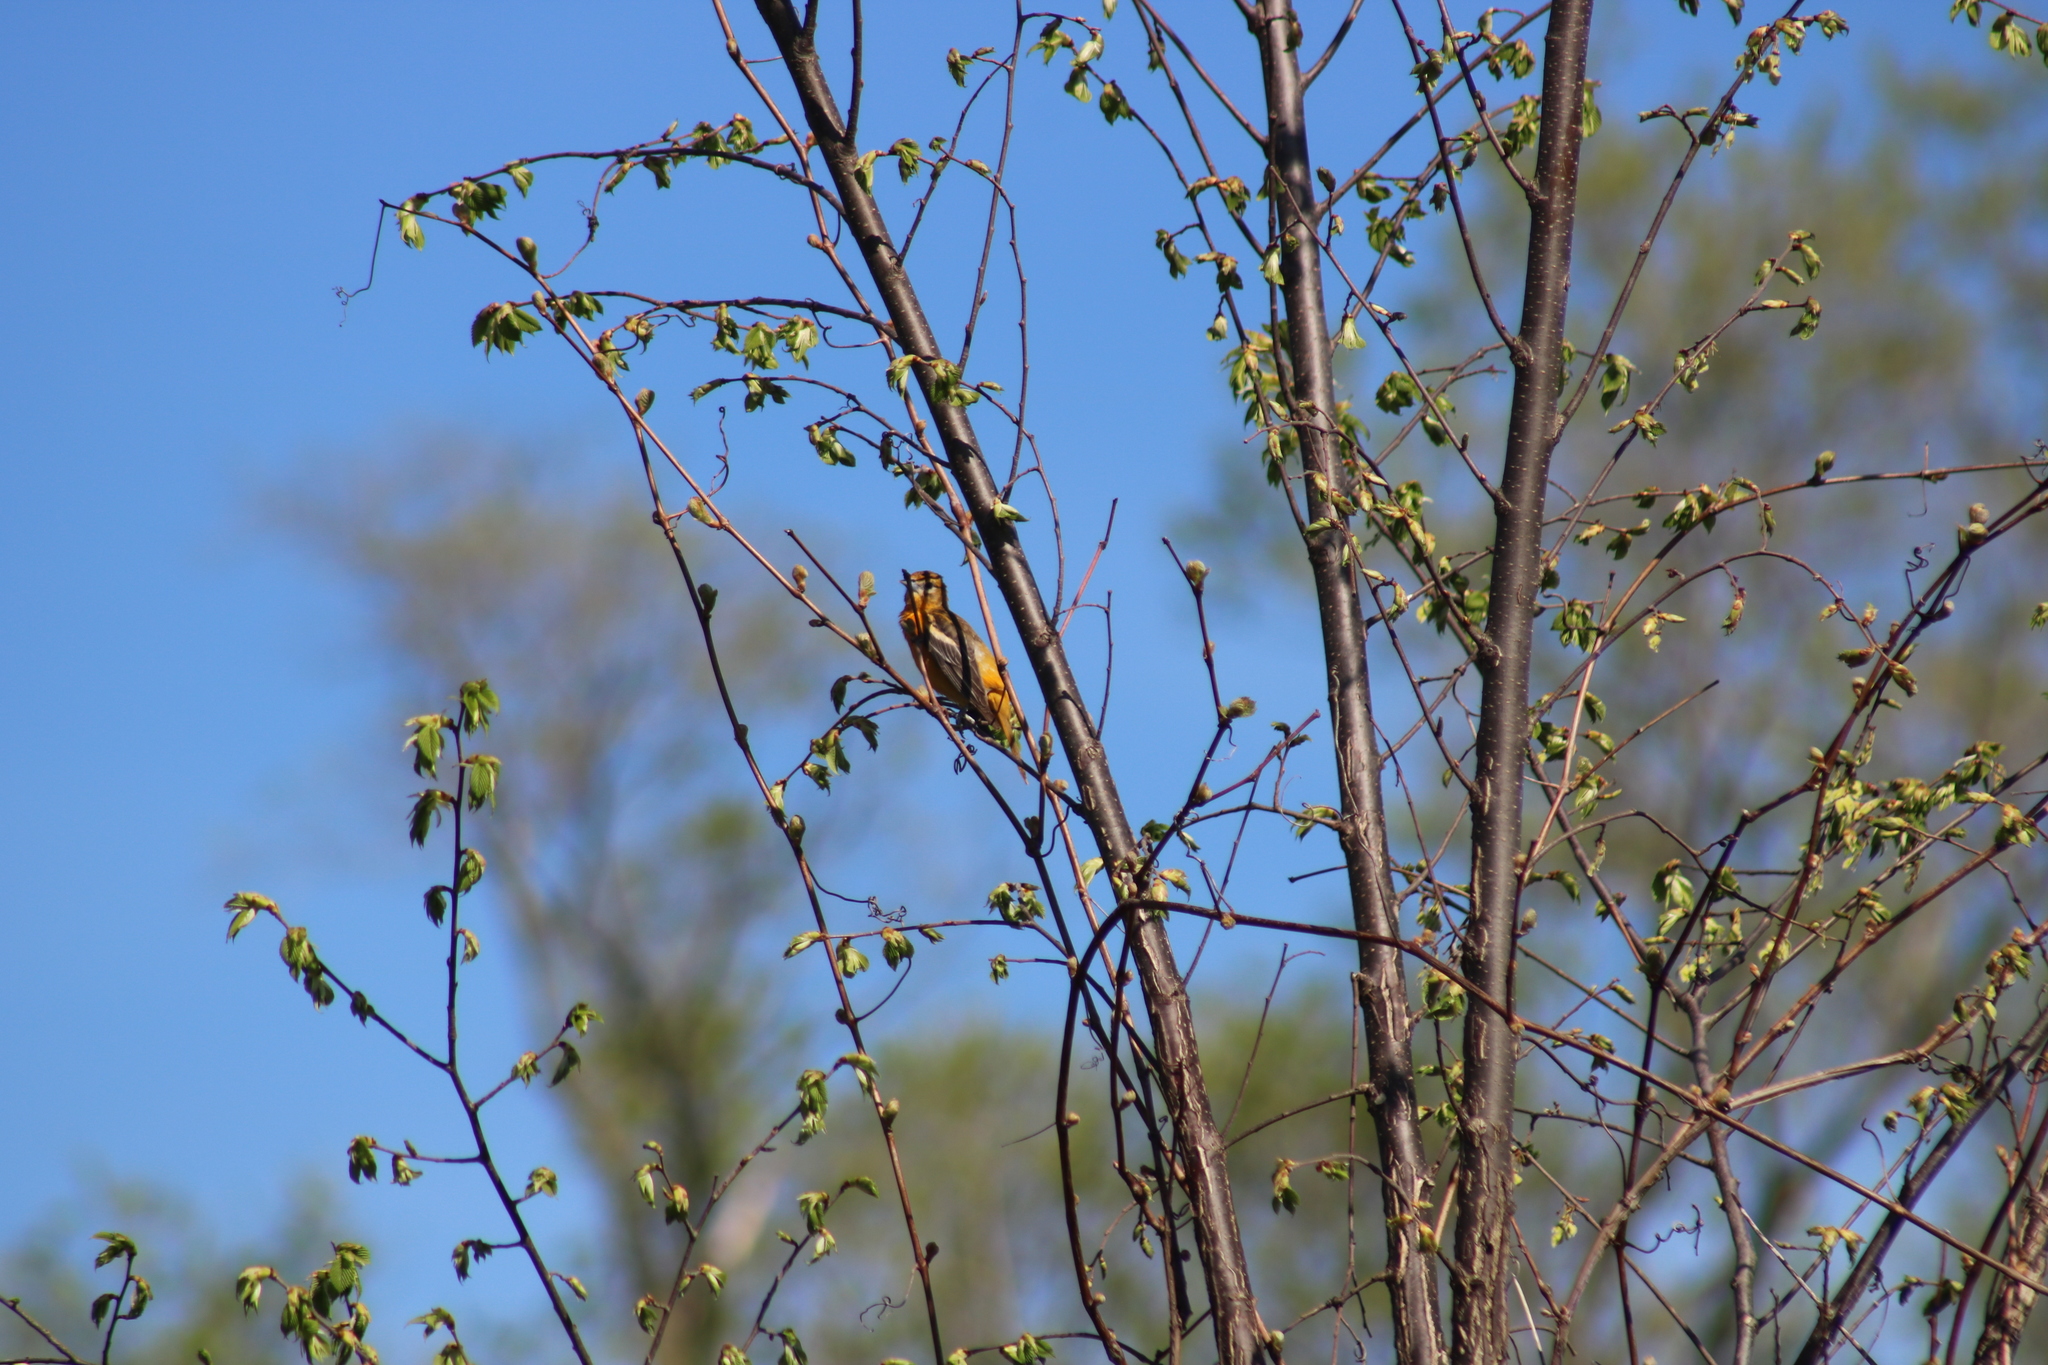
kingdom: Animalia
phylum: Chordata
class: Aves
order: Passeriformes
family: Icteridae
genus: Icterus
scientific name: Icterus galbula
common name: Baltimore oriole
